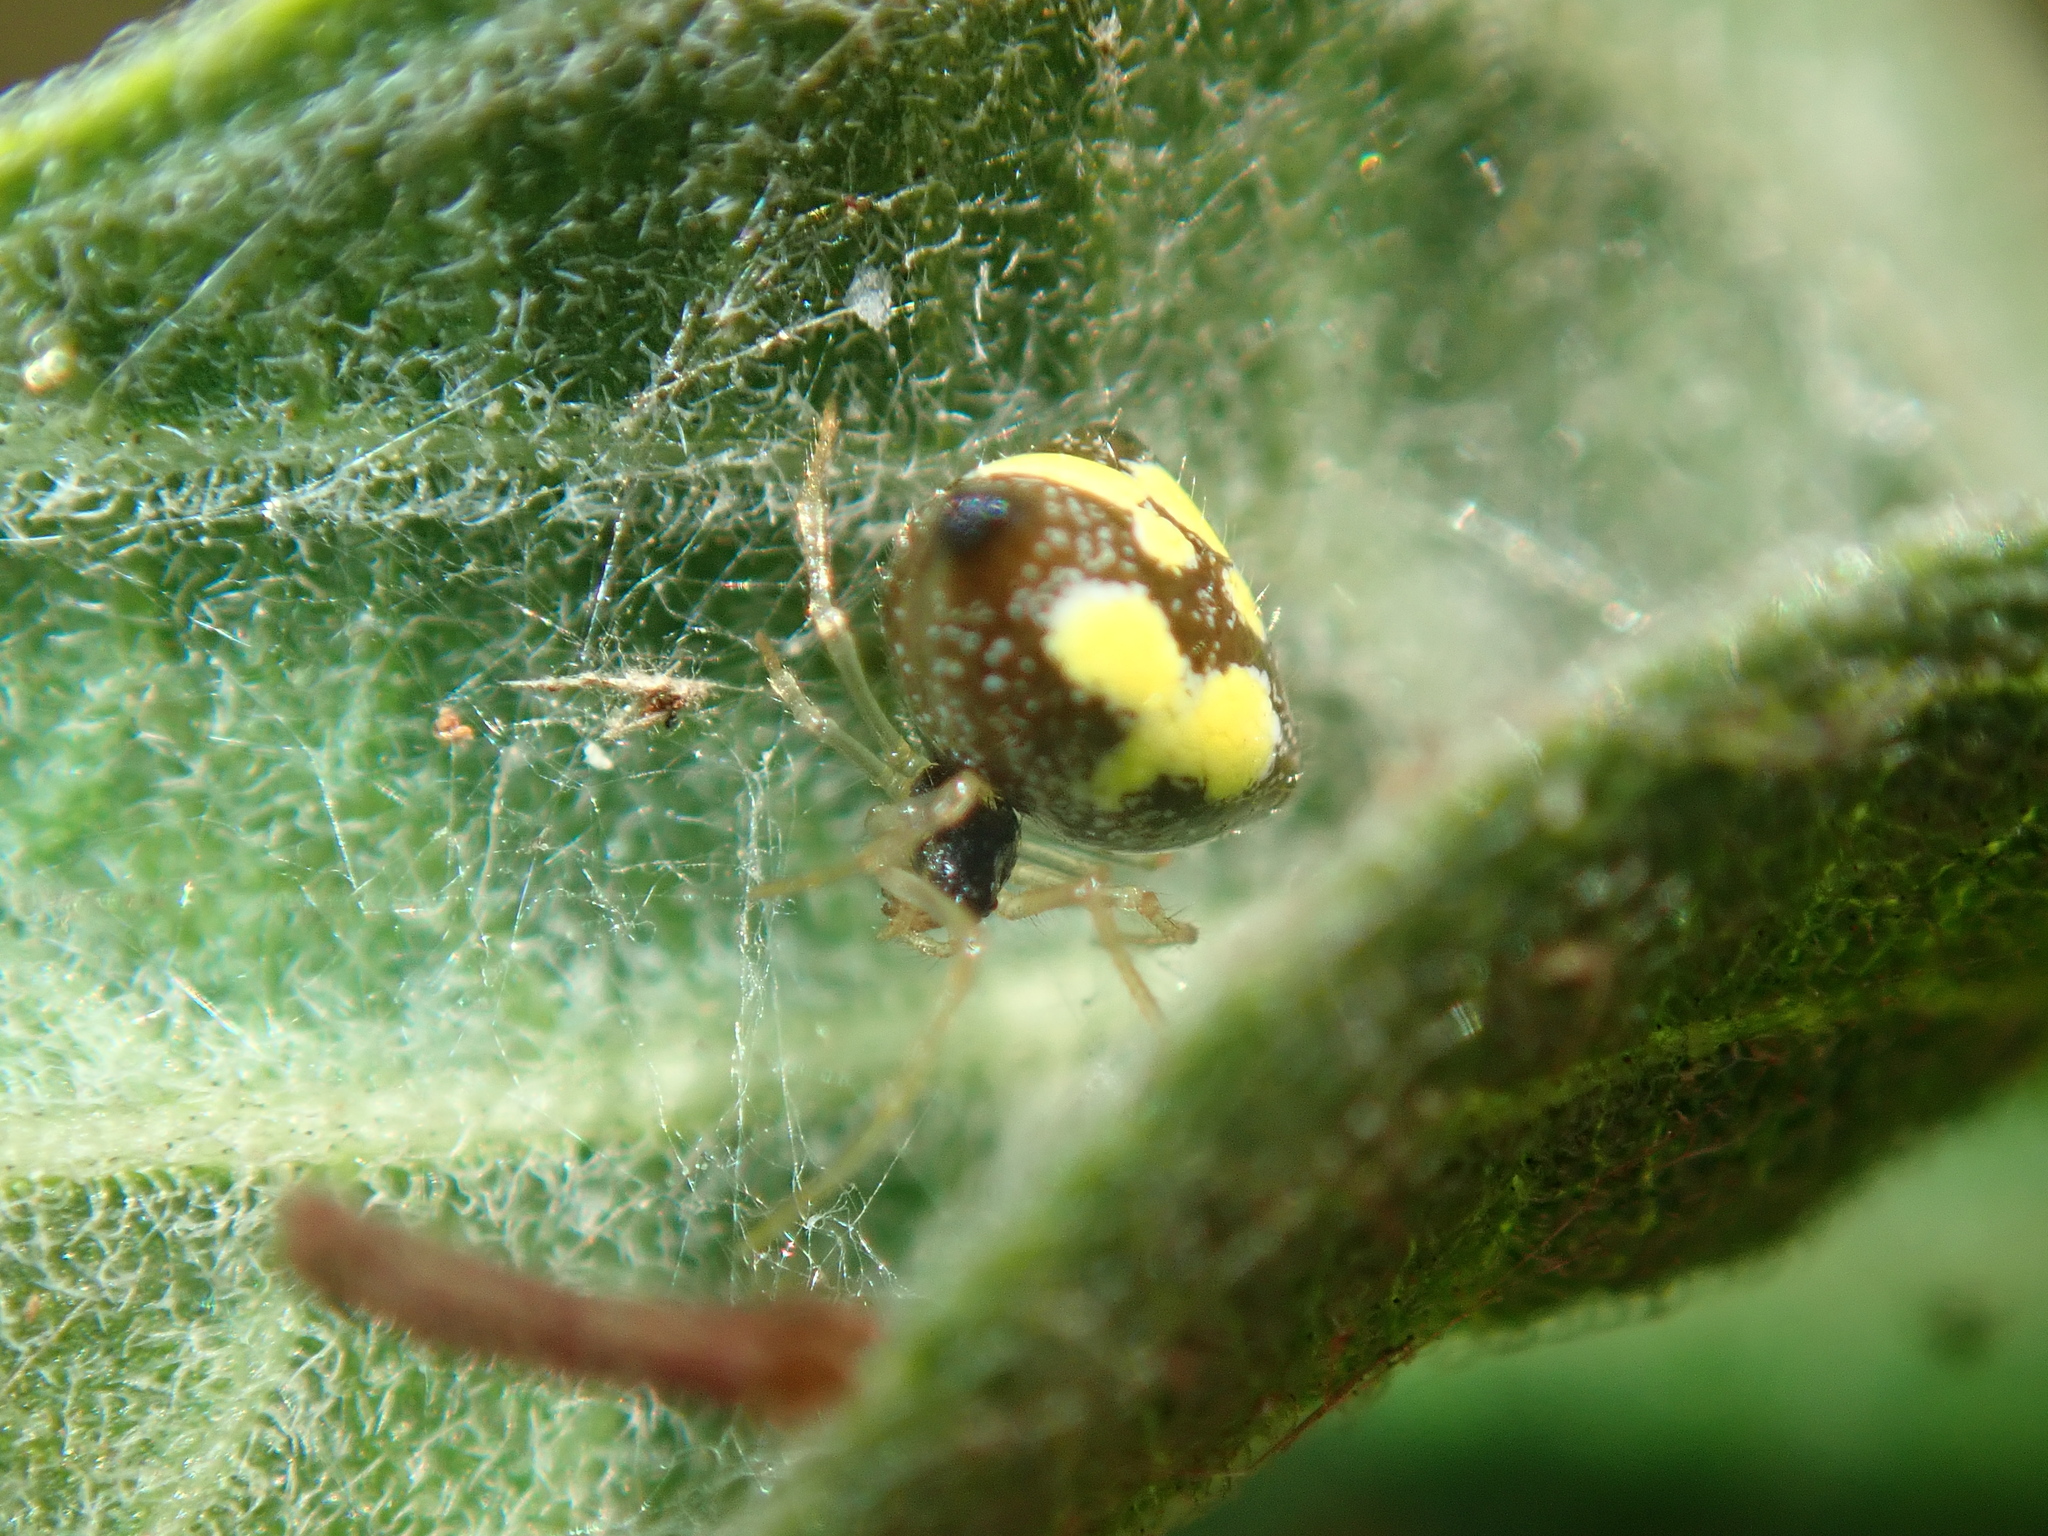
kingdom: Animalia
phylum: Arthropoda
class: Arachnida
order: Araneae
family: Theridiidae
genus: Theridula
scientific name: Theridula multiguttata
